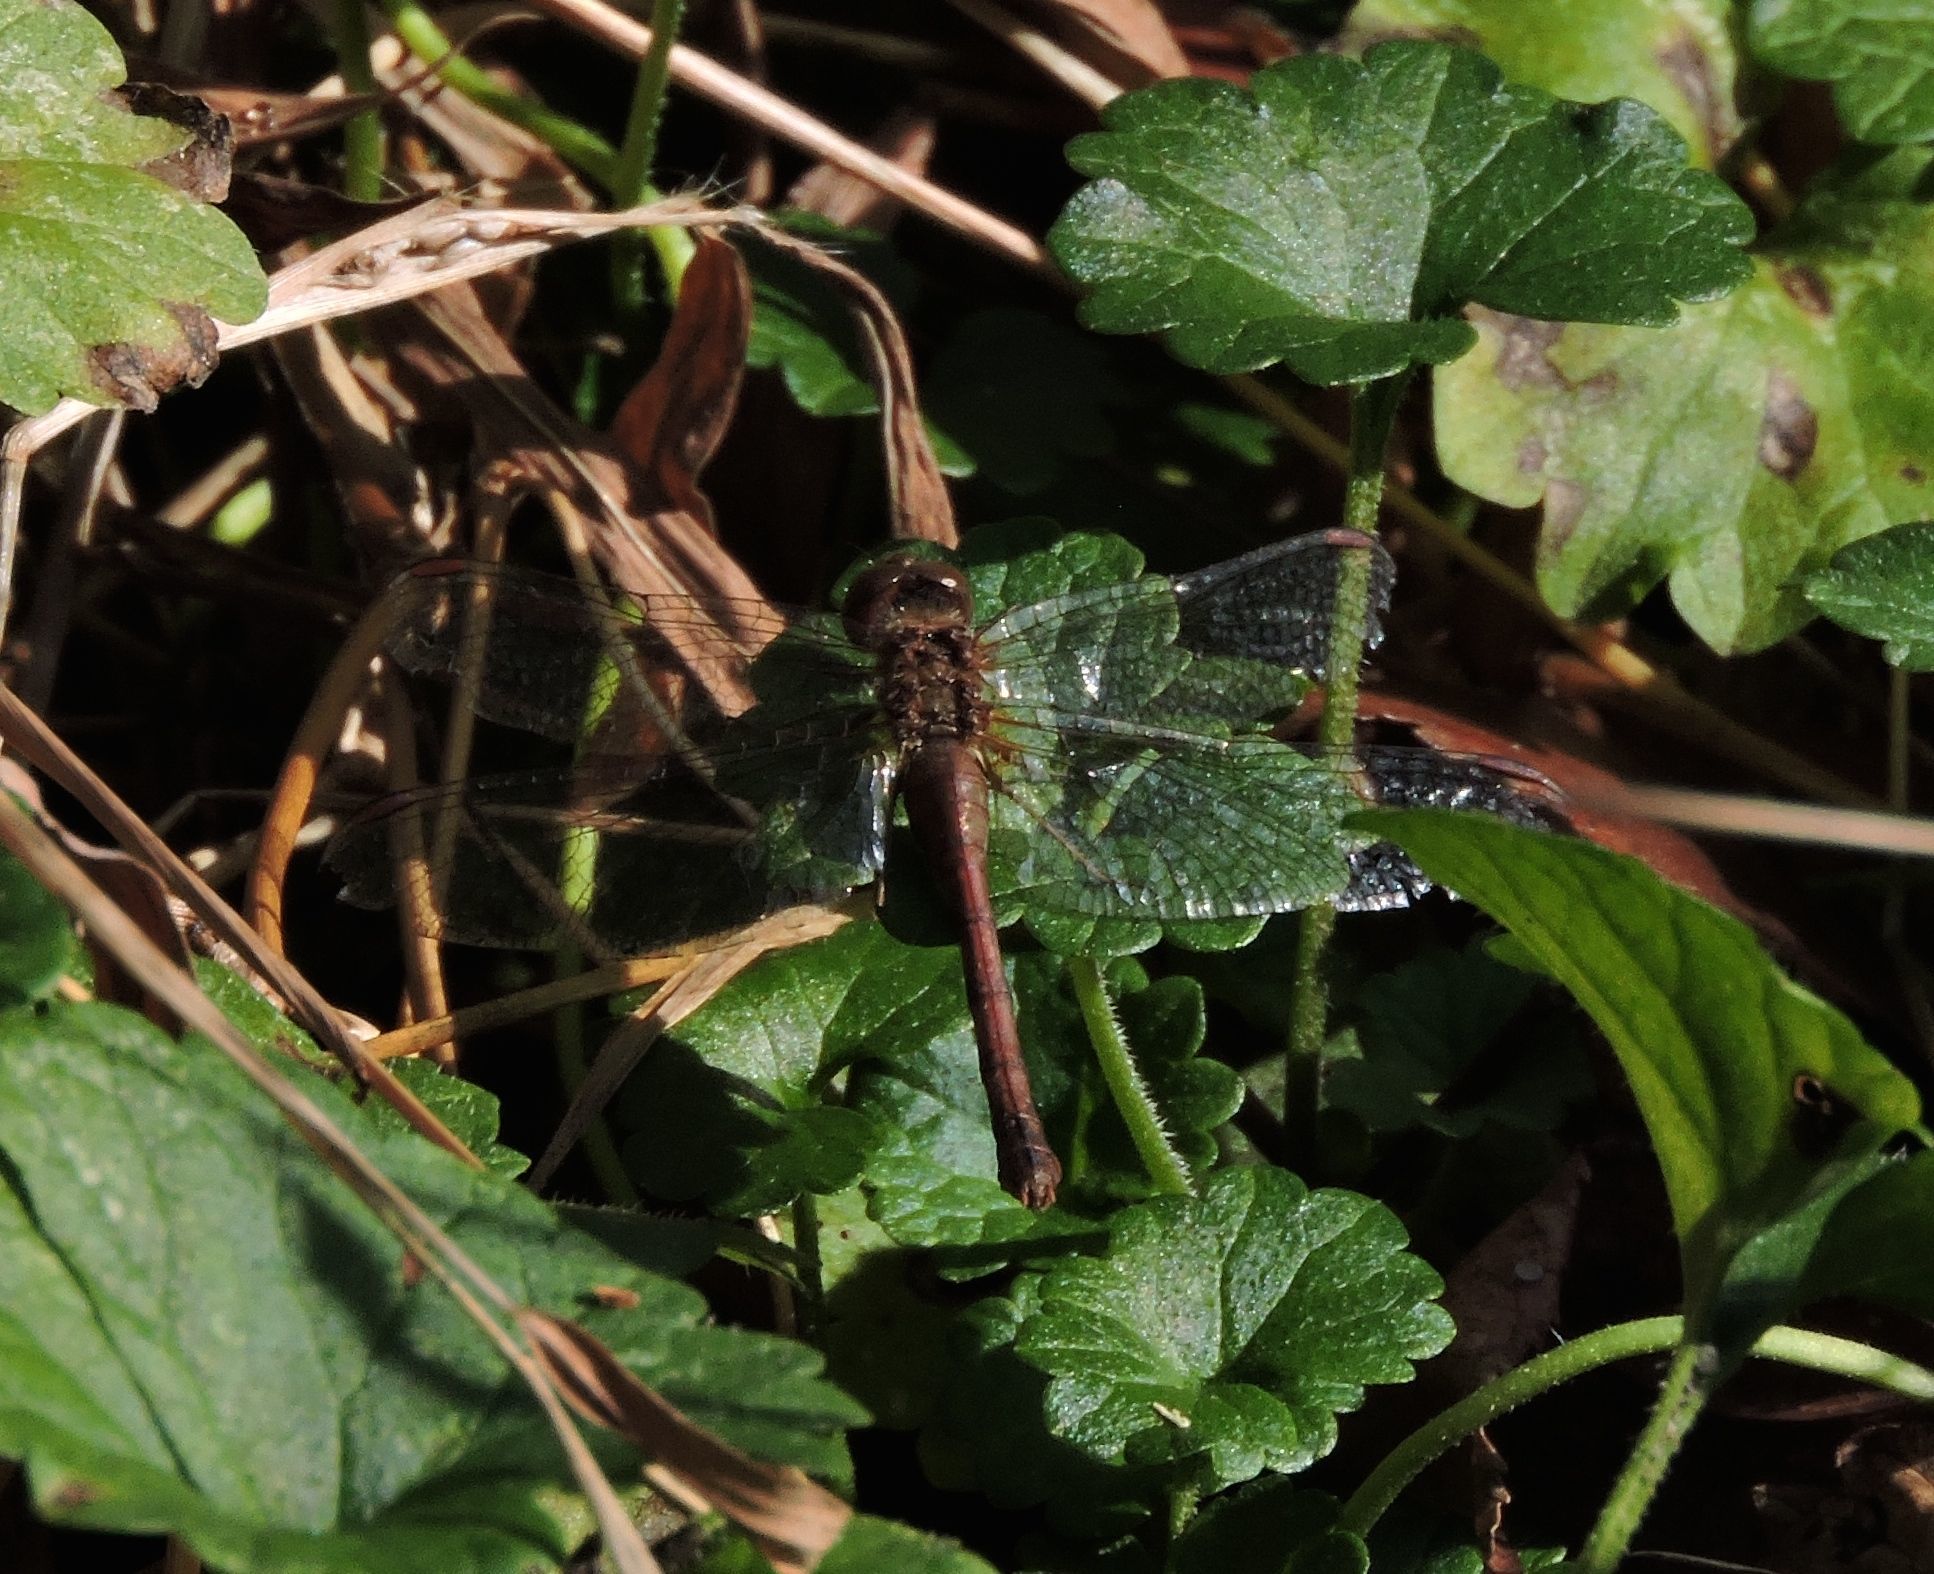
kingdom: Animalia
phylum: Arthropoda
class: Insecta
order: Odonata
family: Libellulidae
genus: Sympetrum
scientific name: Sympetrum vicinum
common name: Autumn meadowhawk
